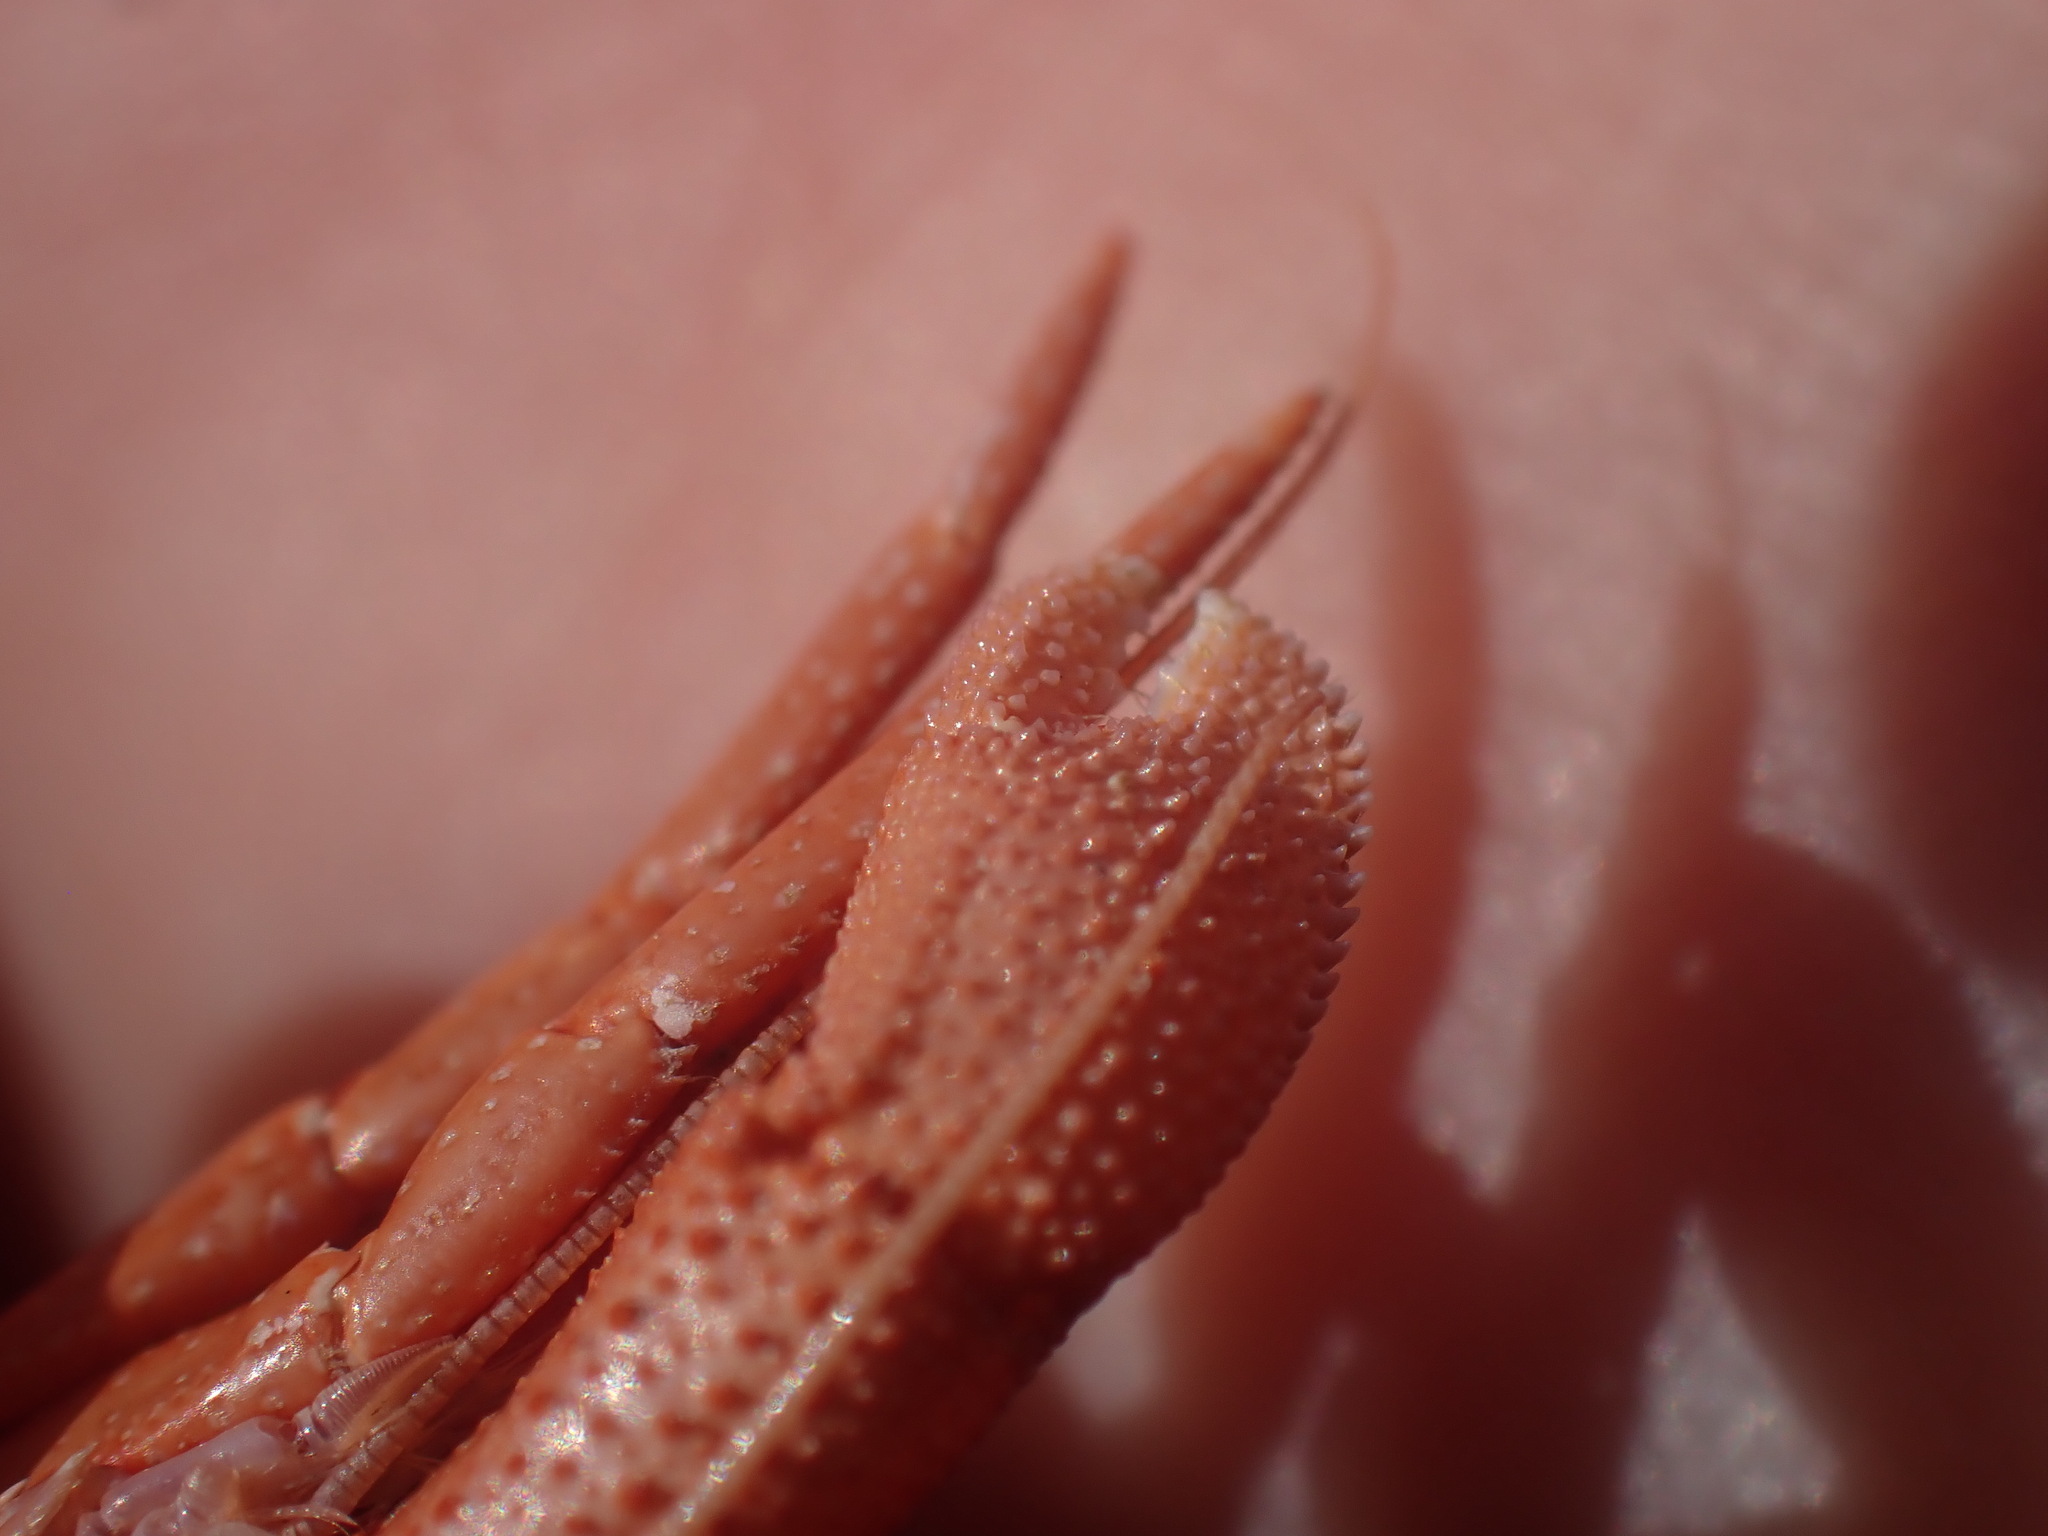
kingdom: Animalia
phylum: Arthropoda
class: Malacostraca
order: Decapoda
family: Paguridae
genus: Pagurus
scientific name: Pagurus hemphilli
